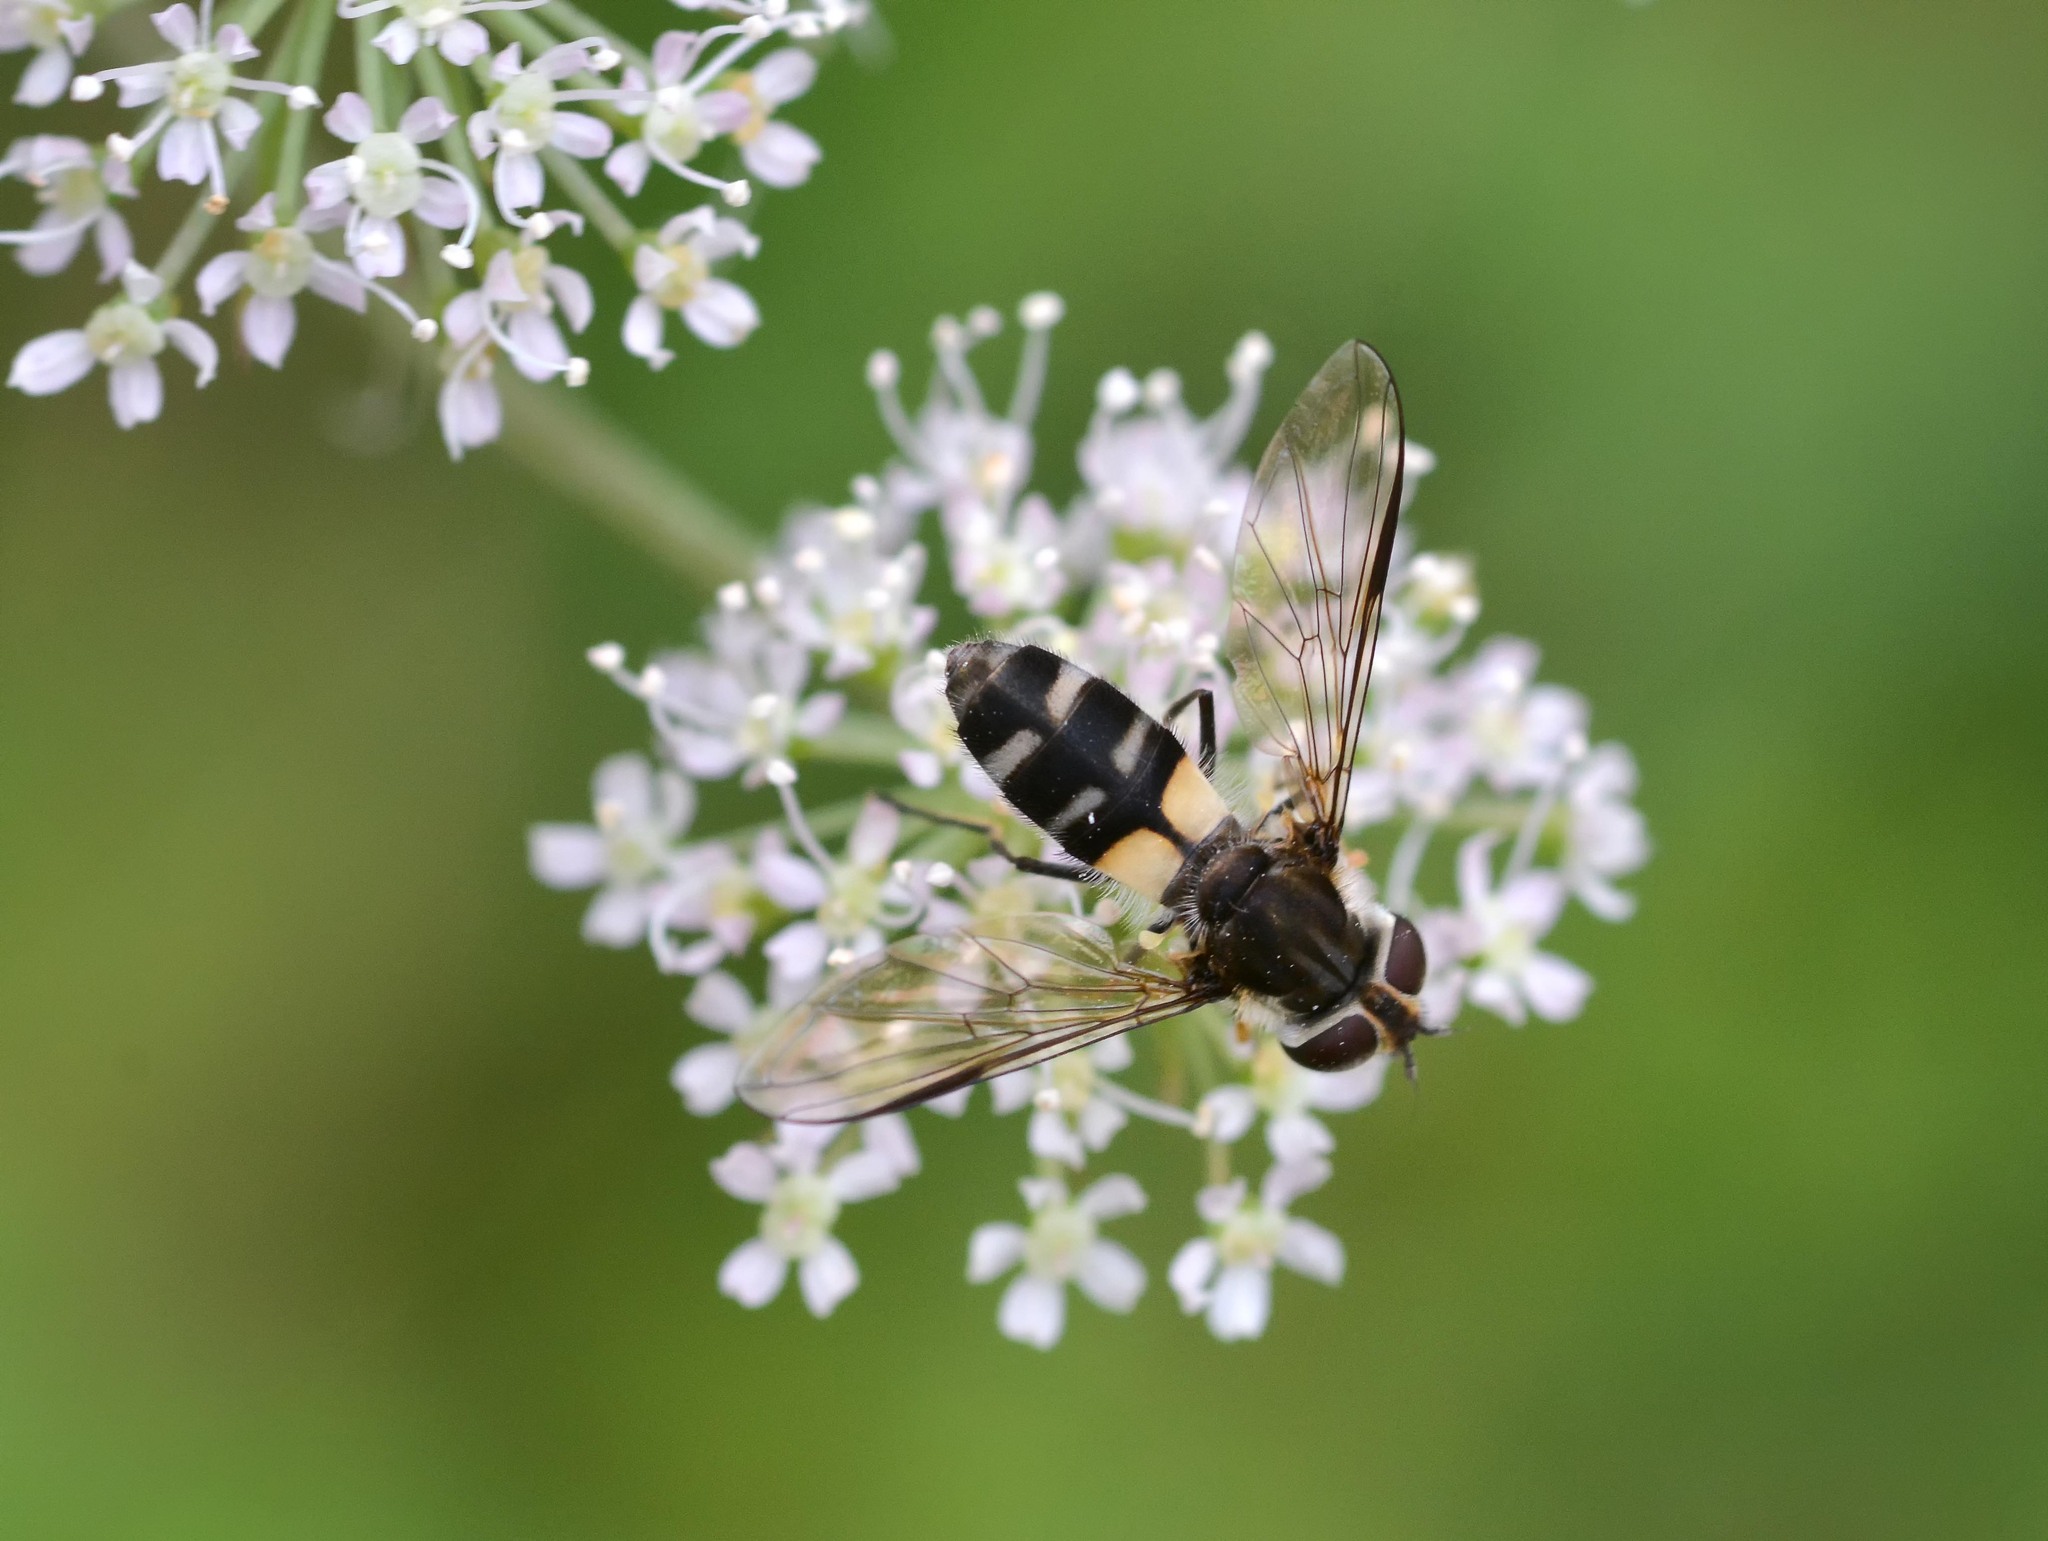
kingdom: Animalia
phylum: Arthropoda
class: Insecta
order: Diptera
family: Syrphidae
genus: Leucozona
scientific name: Leucozona laternaria
